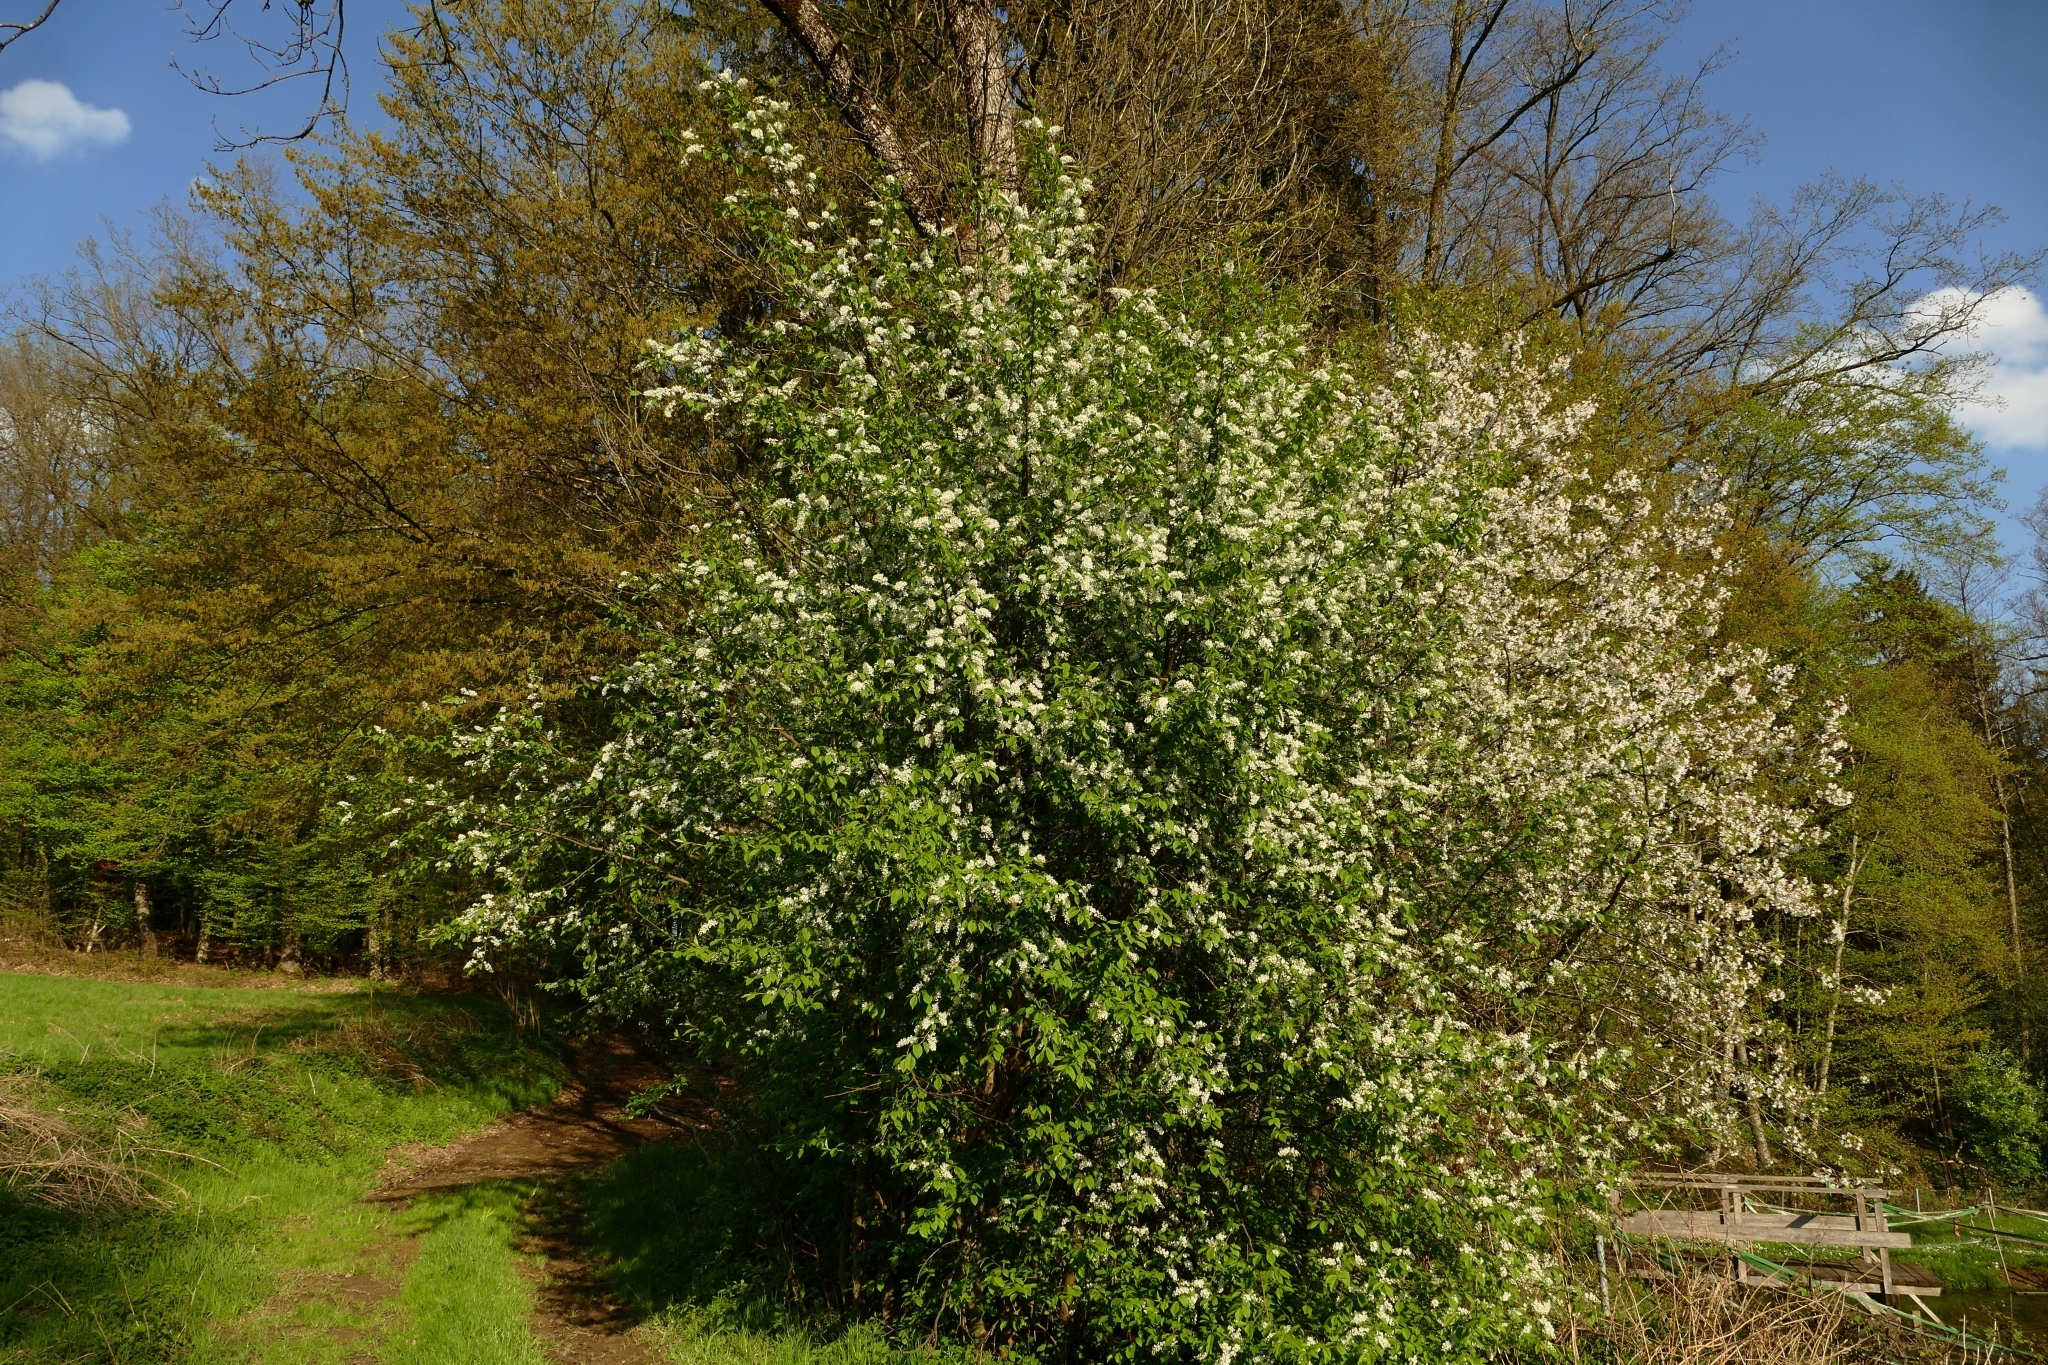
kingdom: Plantae
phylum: Tracheophyta
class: Magnoliopsida
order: Rosales
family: Rosaceae
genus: Prunus
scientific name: Prunus padus
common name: Bird cherry
